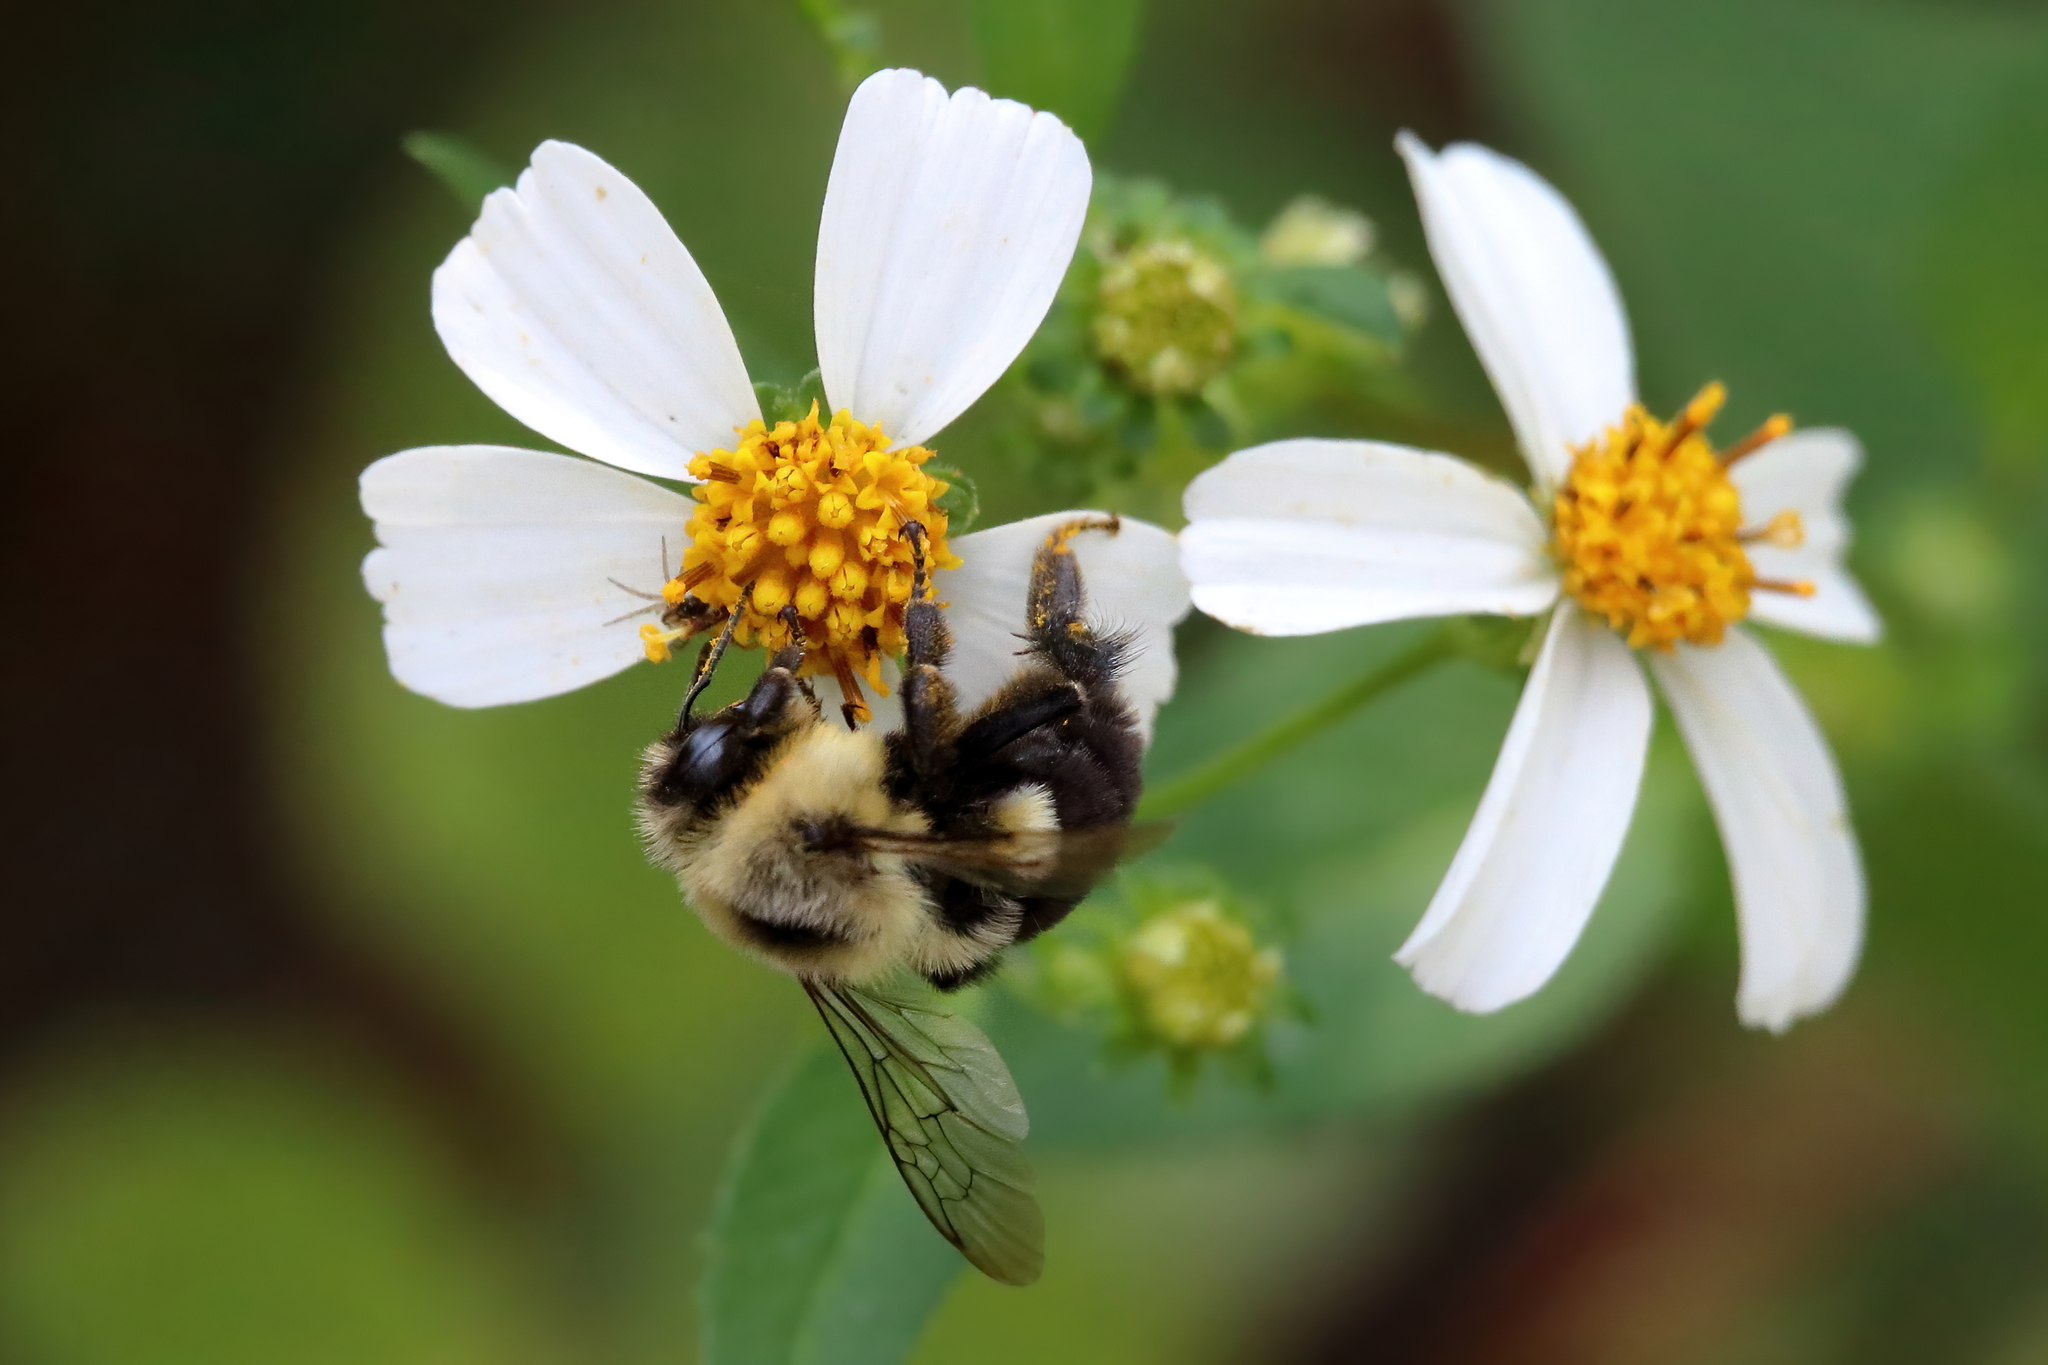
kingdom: Animalia
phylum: Arthropoda
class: Insecta
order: Hymenoptera
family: Apidae
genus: Bombus
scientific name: Bombus impatiens
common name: Common eastern bumble bee
